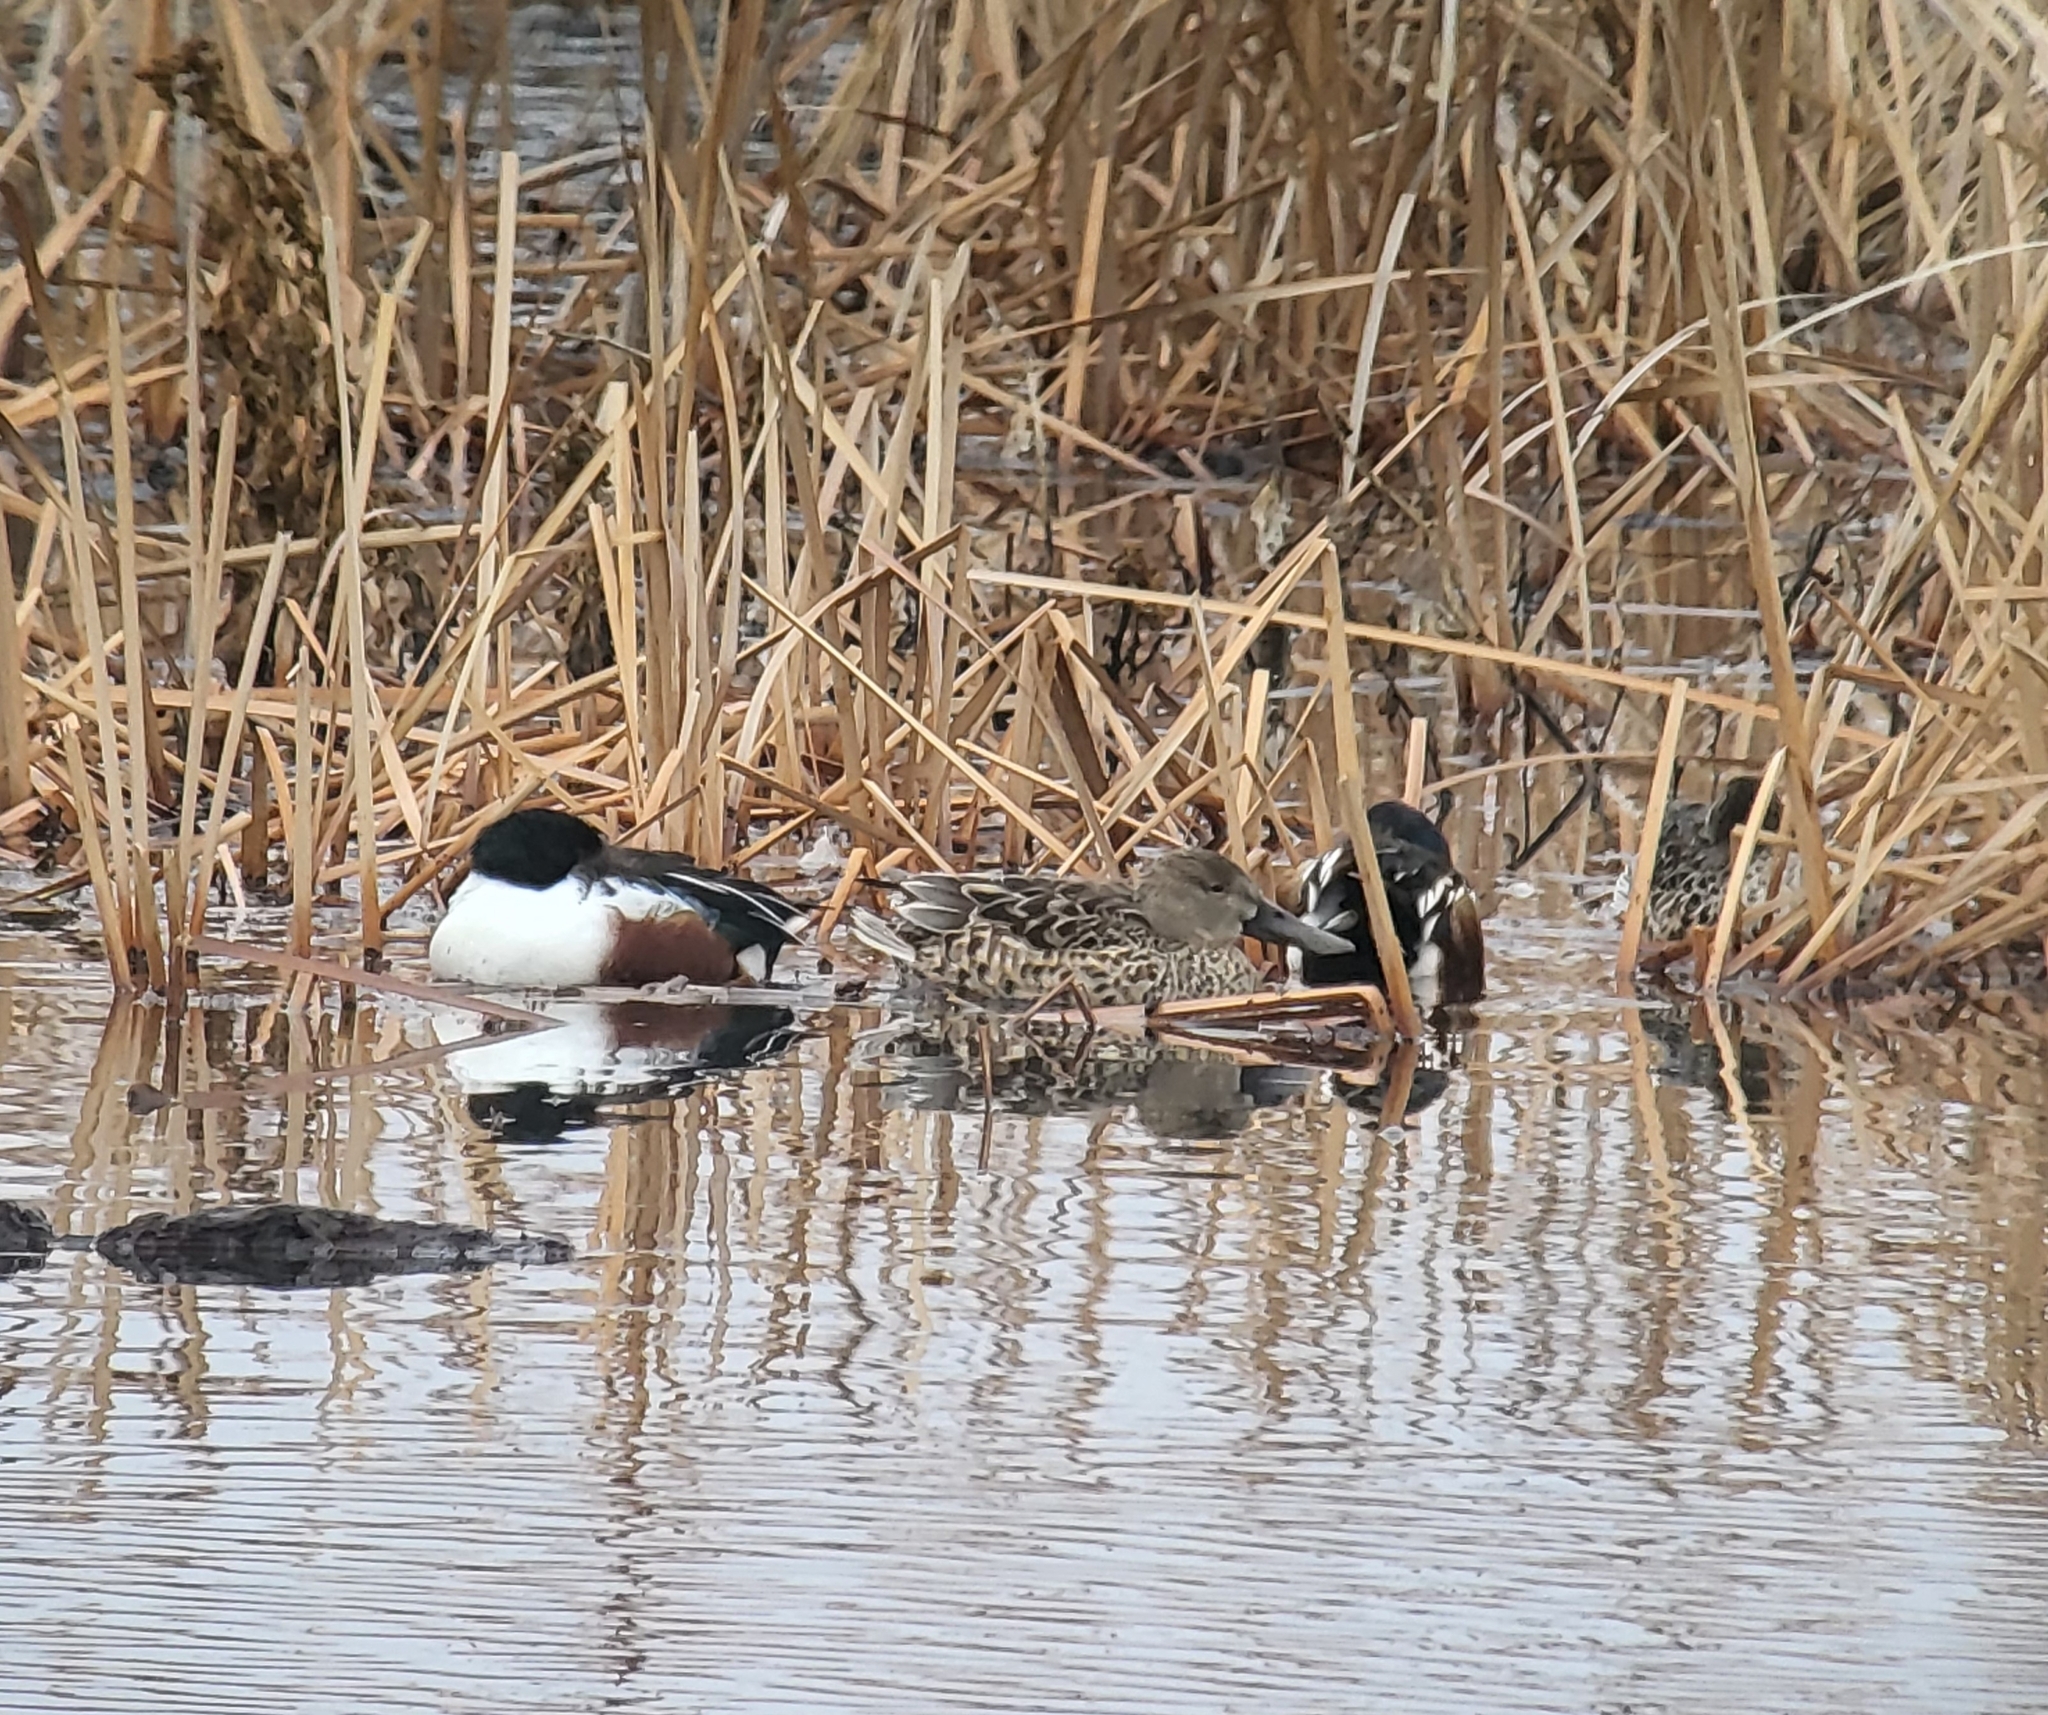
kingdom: Animalia
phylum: Chordata
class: Aves
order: Anseriformes
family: Anatidae
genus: Spatula
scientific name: Spatula clypeata
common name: Northern shoveler
